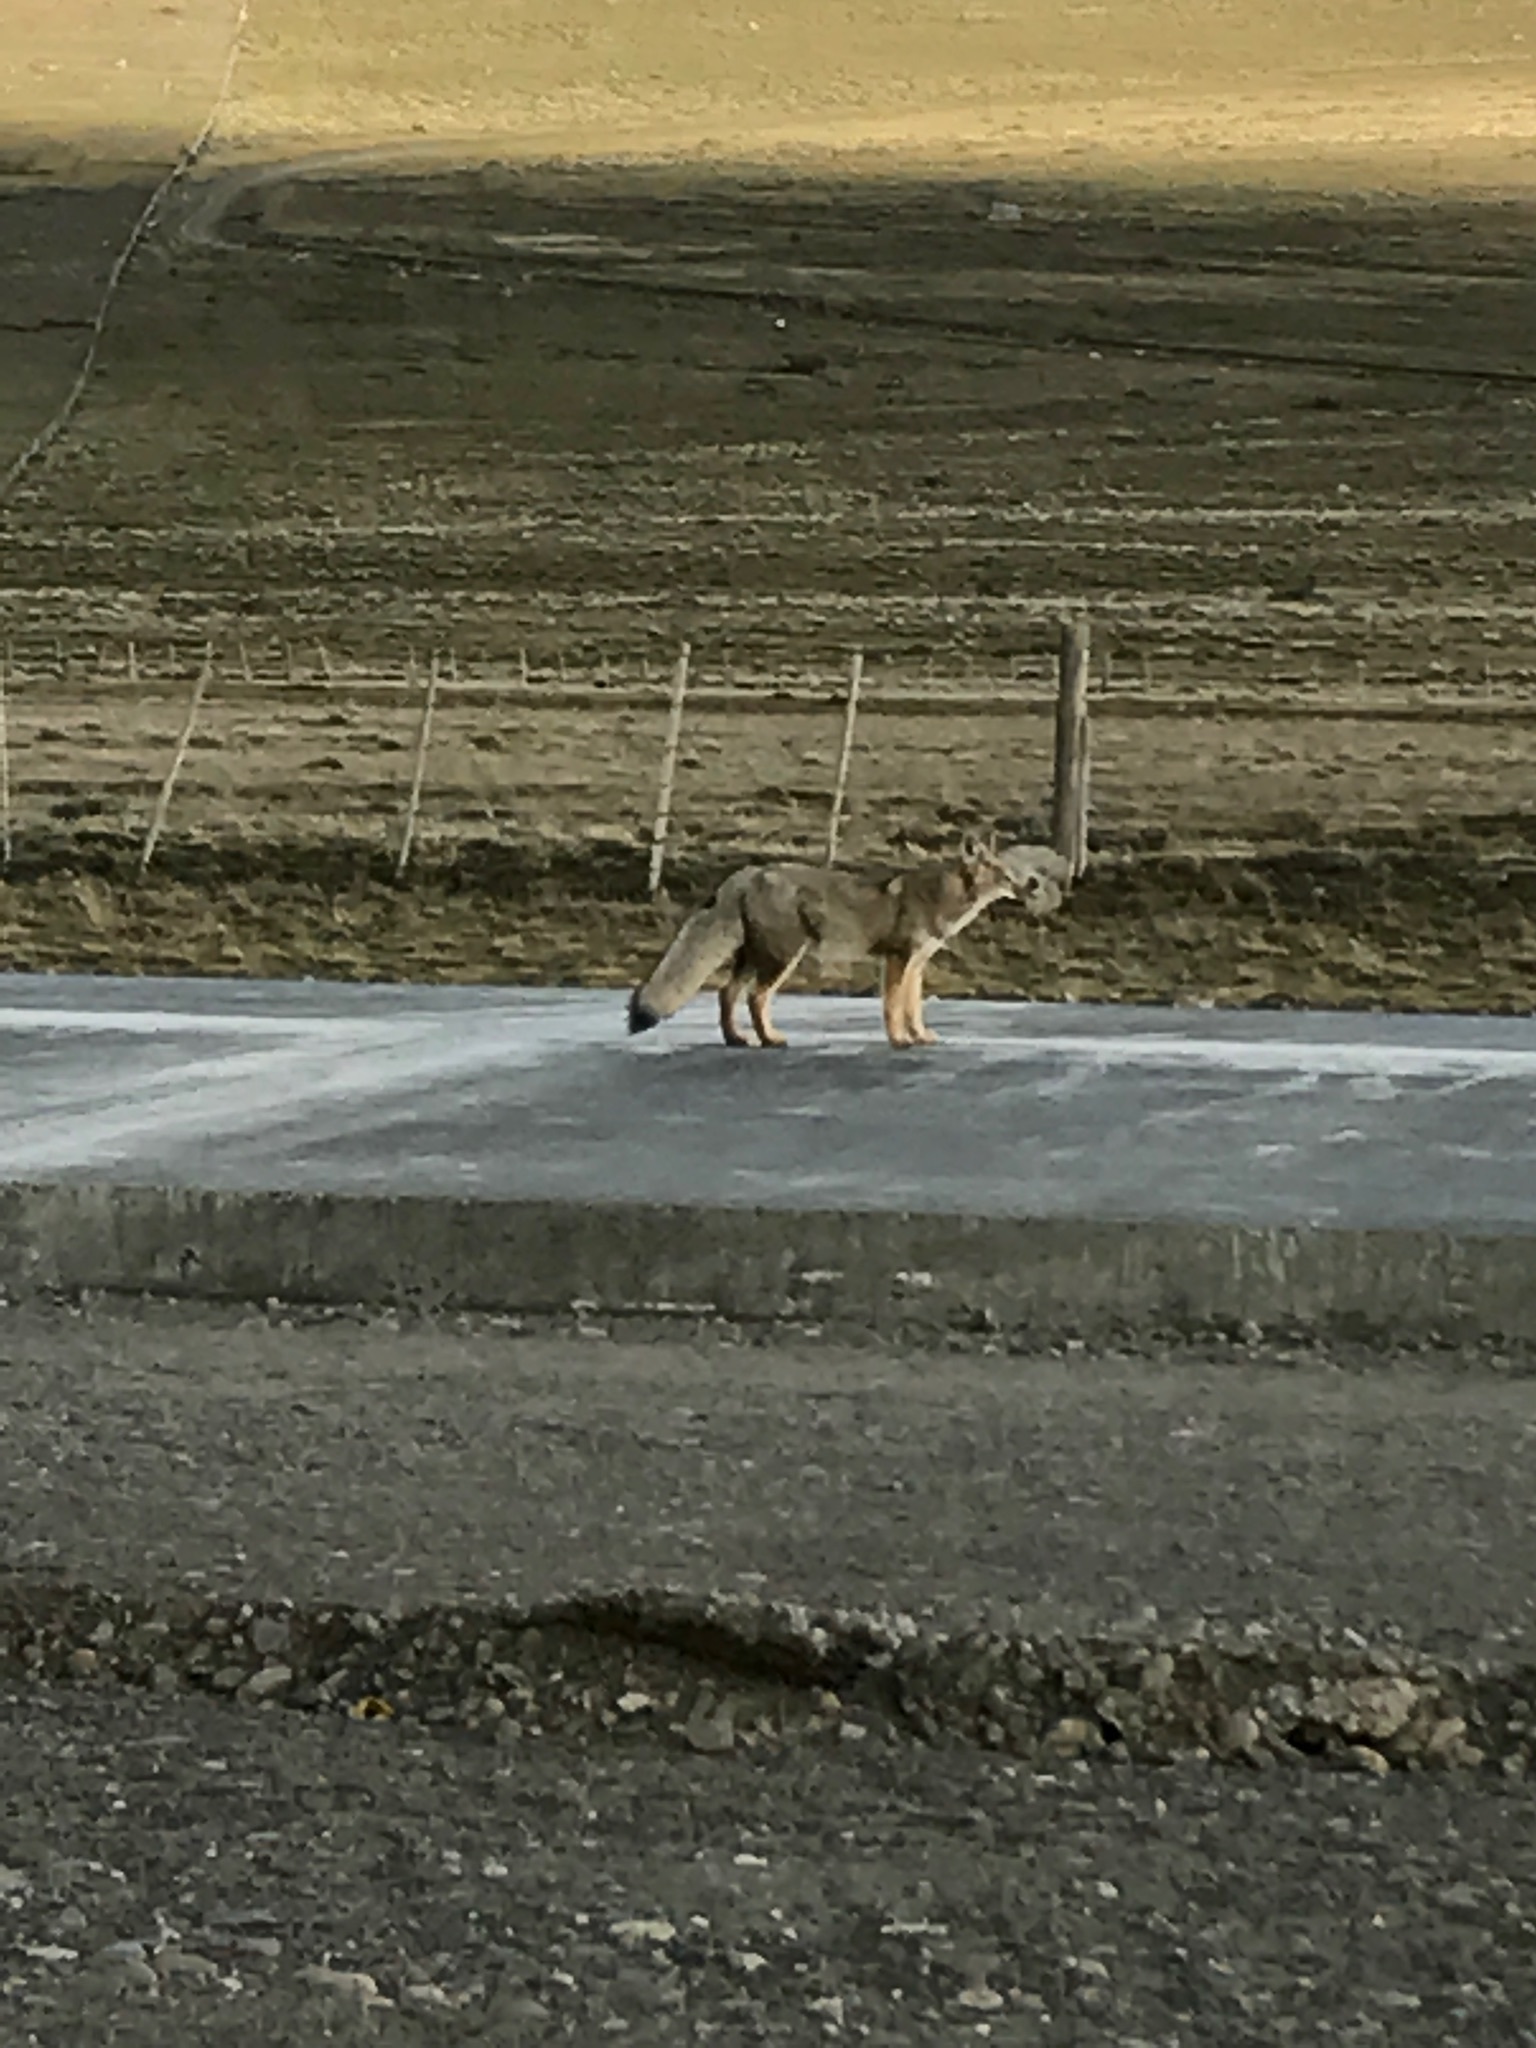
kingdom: Animalia
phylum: Chordata
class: Mammalia
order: Carnivora
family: Canidae
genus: Lycalopex
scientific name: Lycalopex culpaeus
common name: Culpeo
